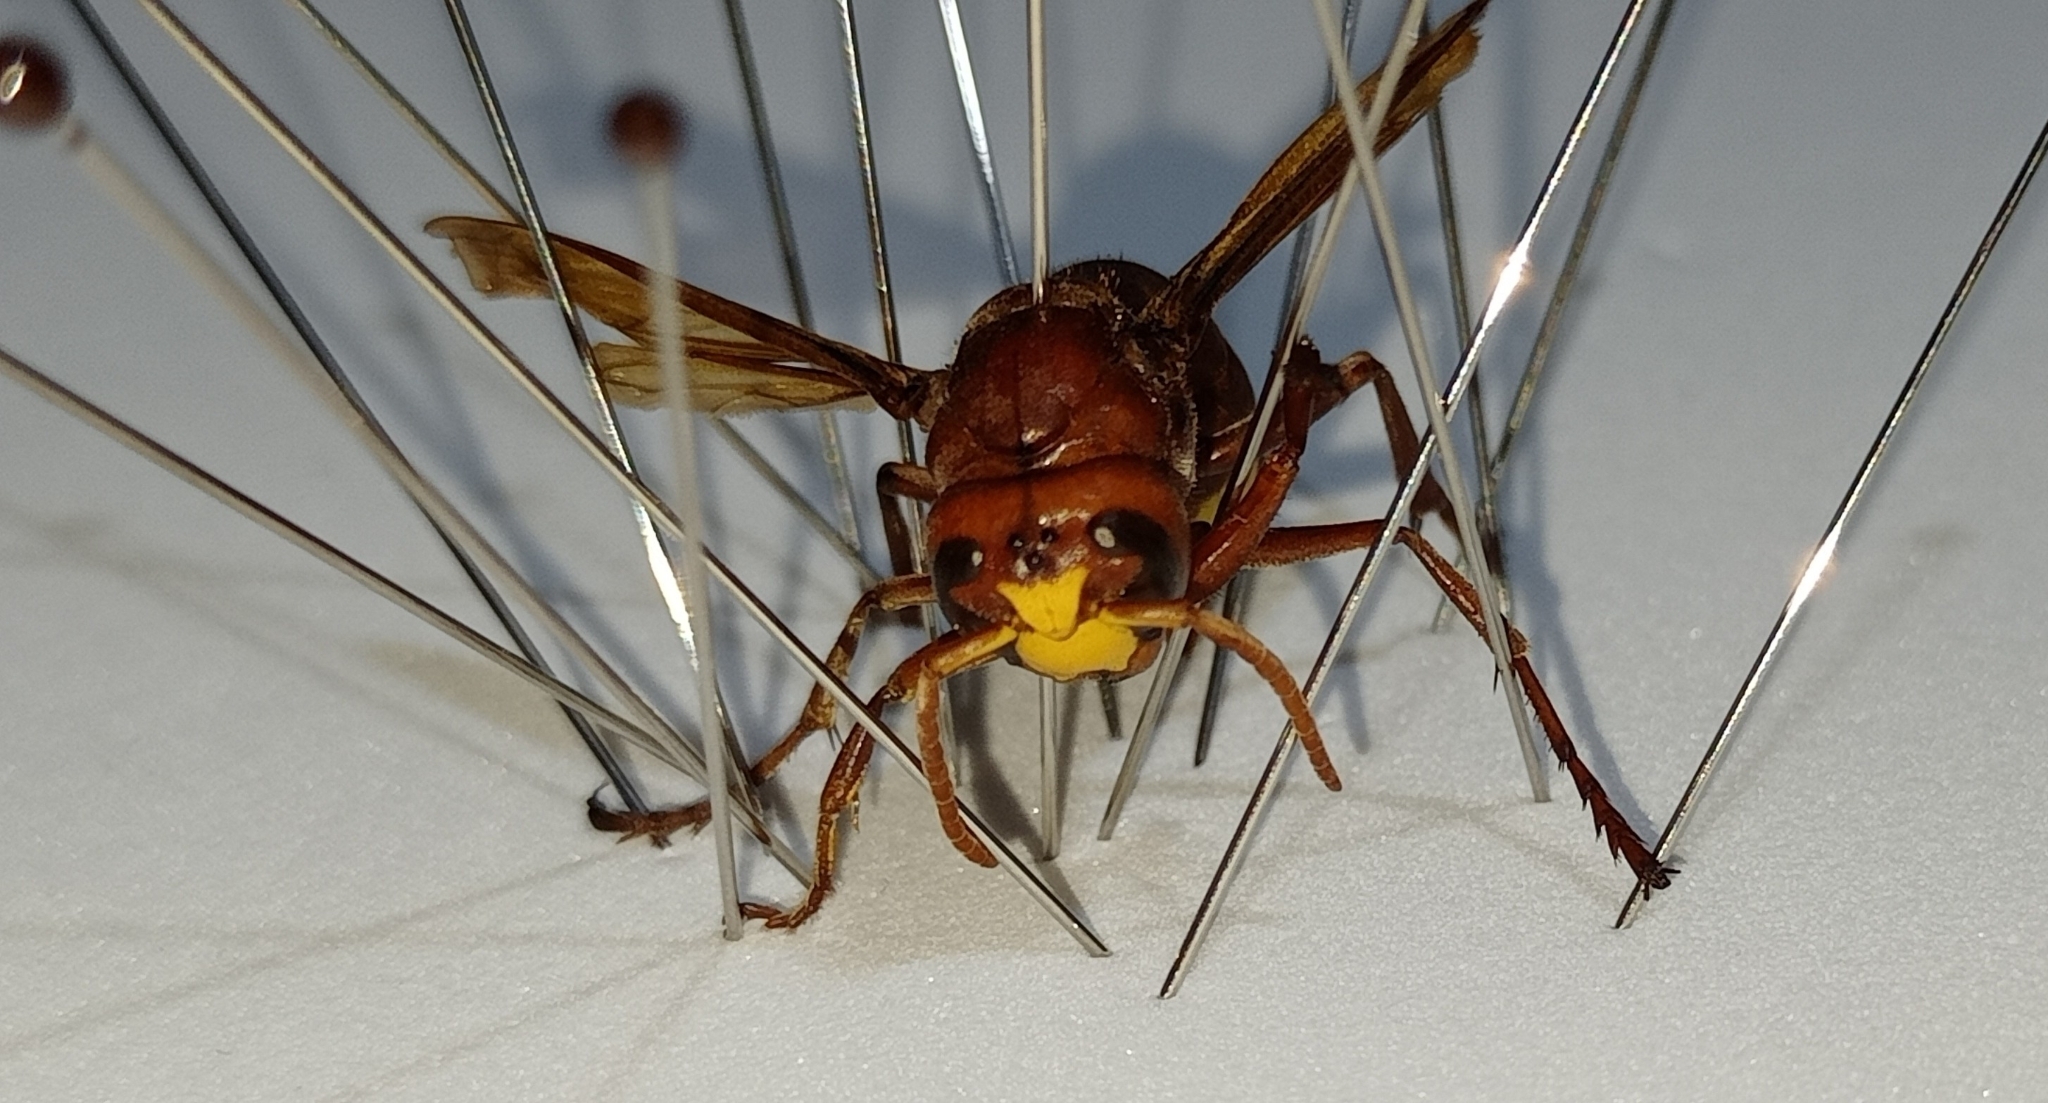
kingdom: Animalia
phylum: Arthropoda
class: Insecta
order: Hymenoptera
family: Vespidae
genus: Vespa
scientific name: Vespa orientalis
